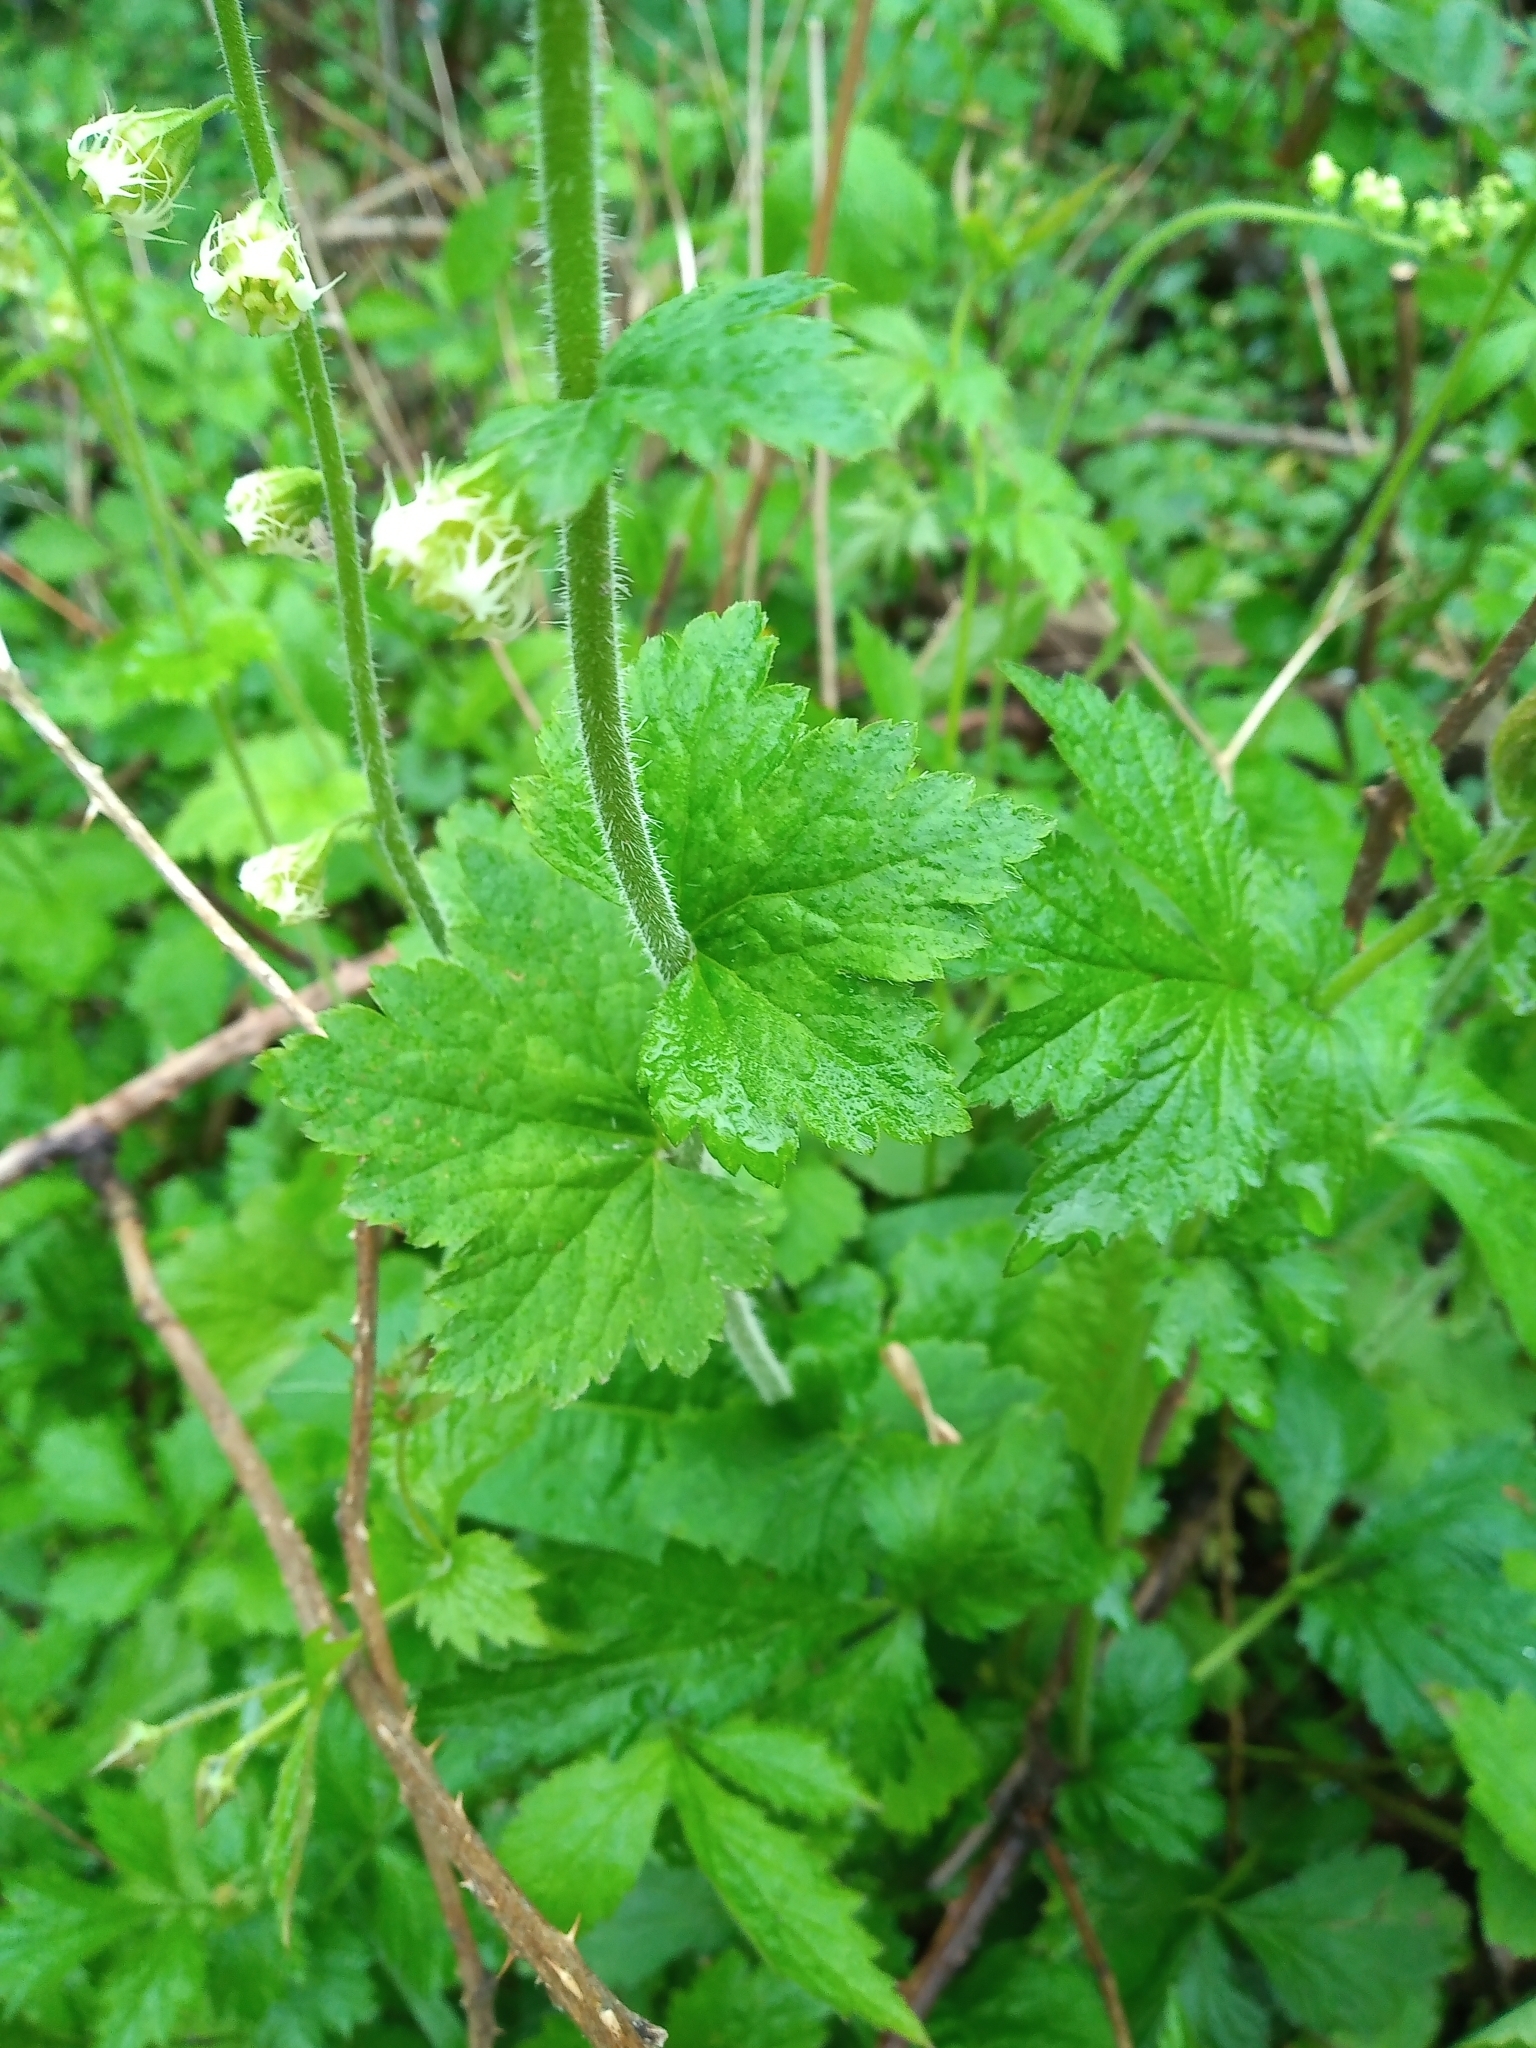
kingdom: Plantae
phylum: Tracheophyta
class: Magnoliopsida
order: Saxifragales
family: Saxifragaceae
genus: Tellima
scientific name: Tellima grandiflora
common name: Fringecups
